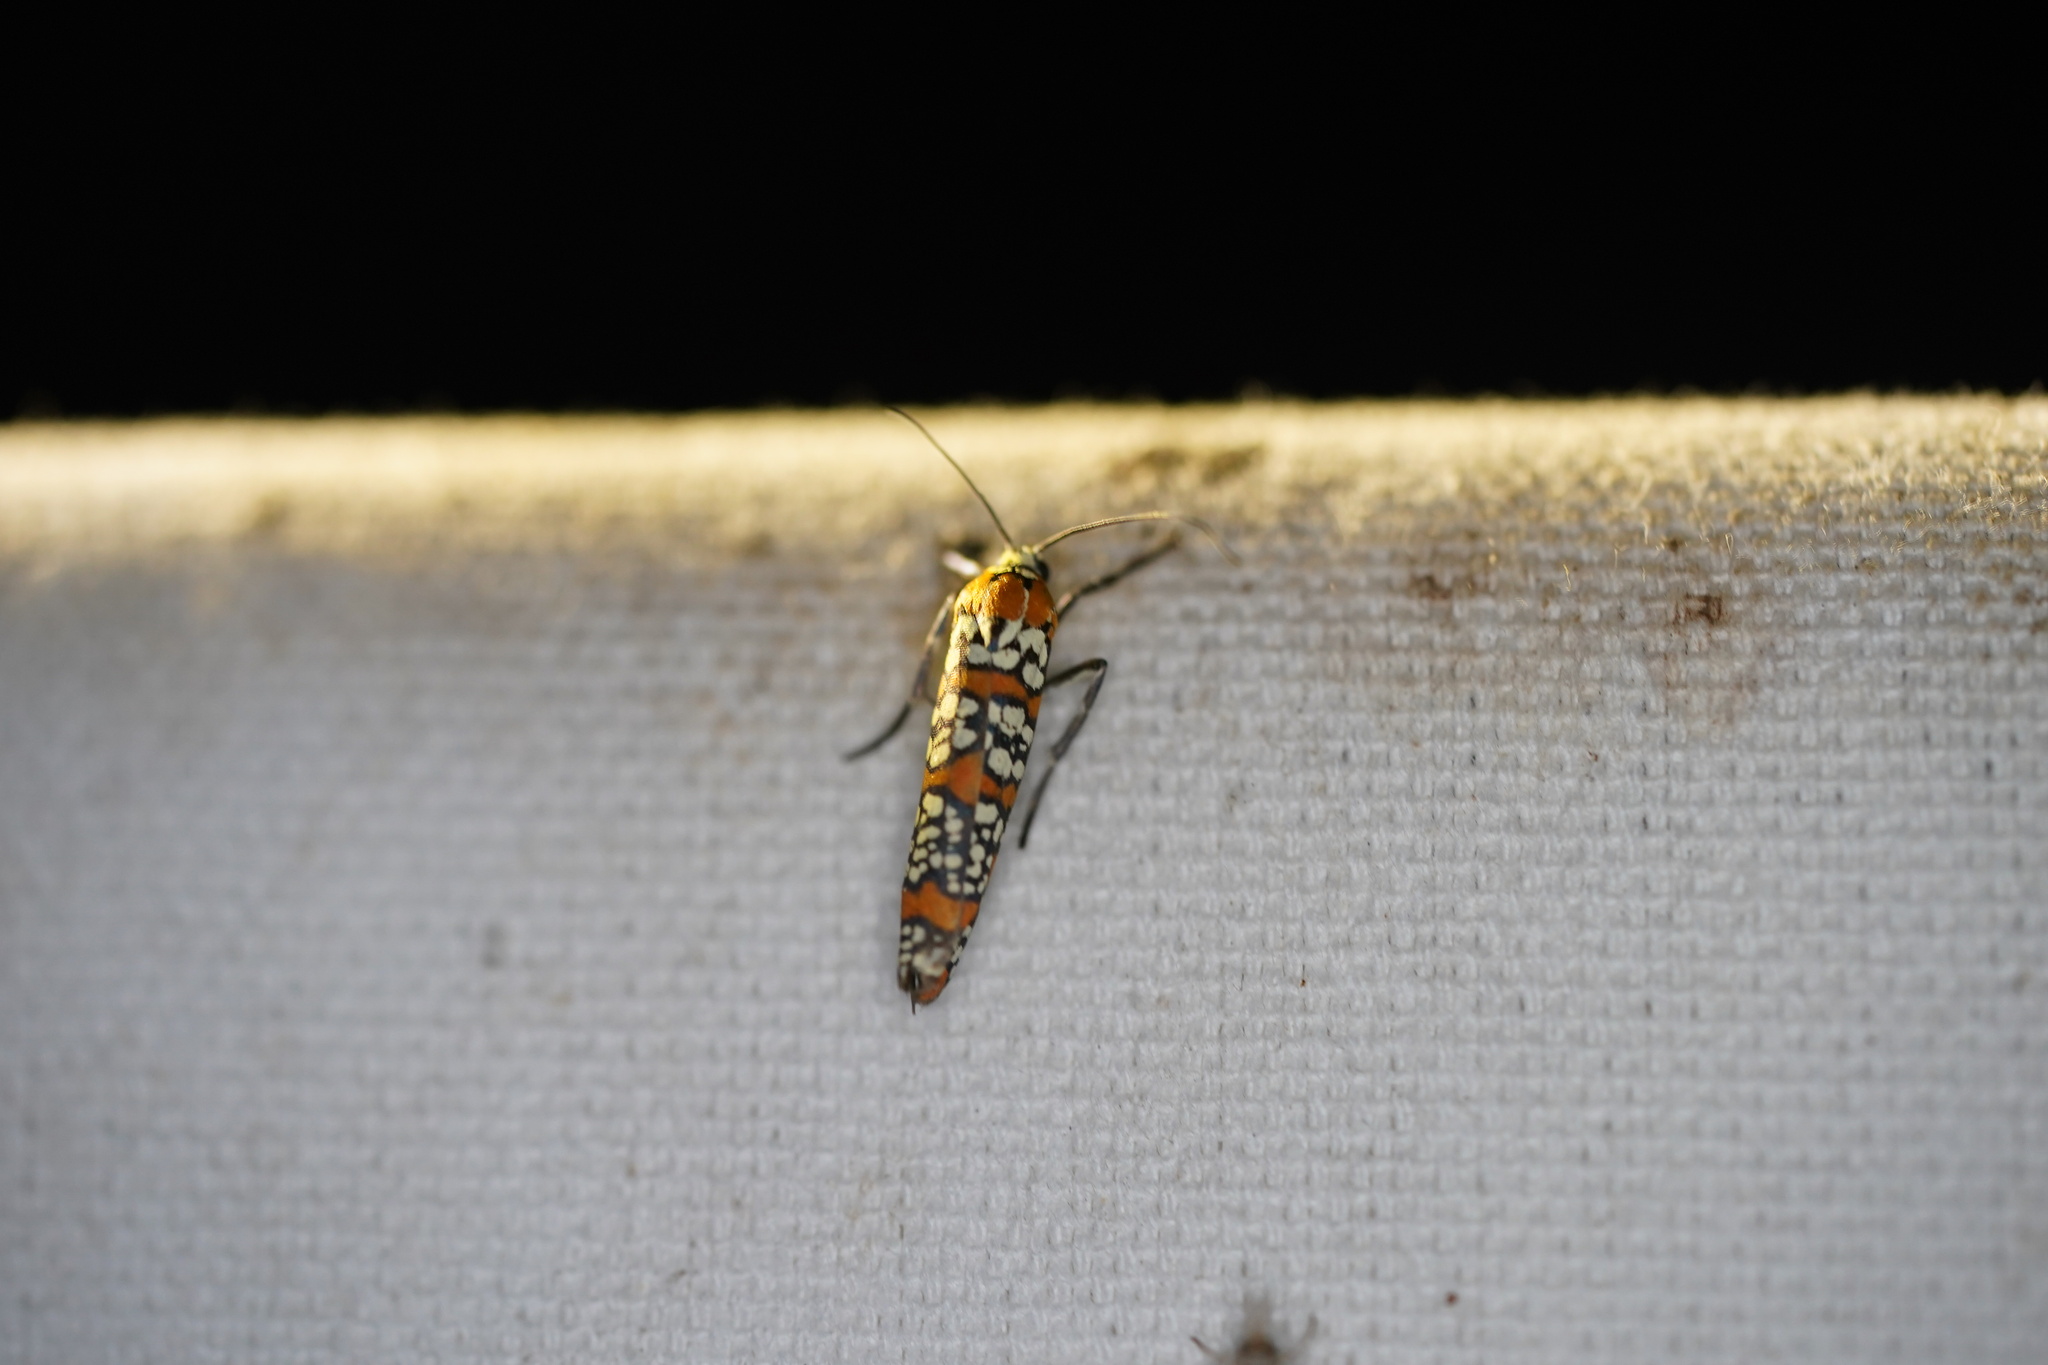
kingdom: Animalia
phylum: Arthropoda
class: Insecta
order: Lepidoptera
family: Attevidae
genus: Atteva
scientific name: Atteva punctella
